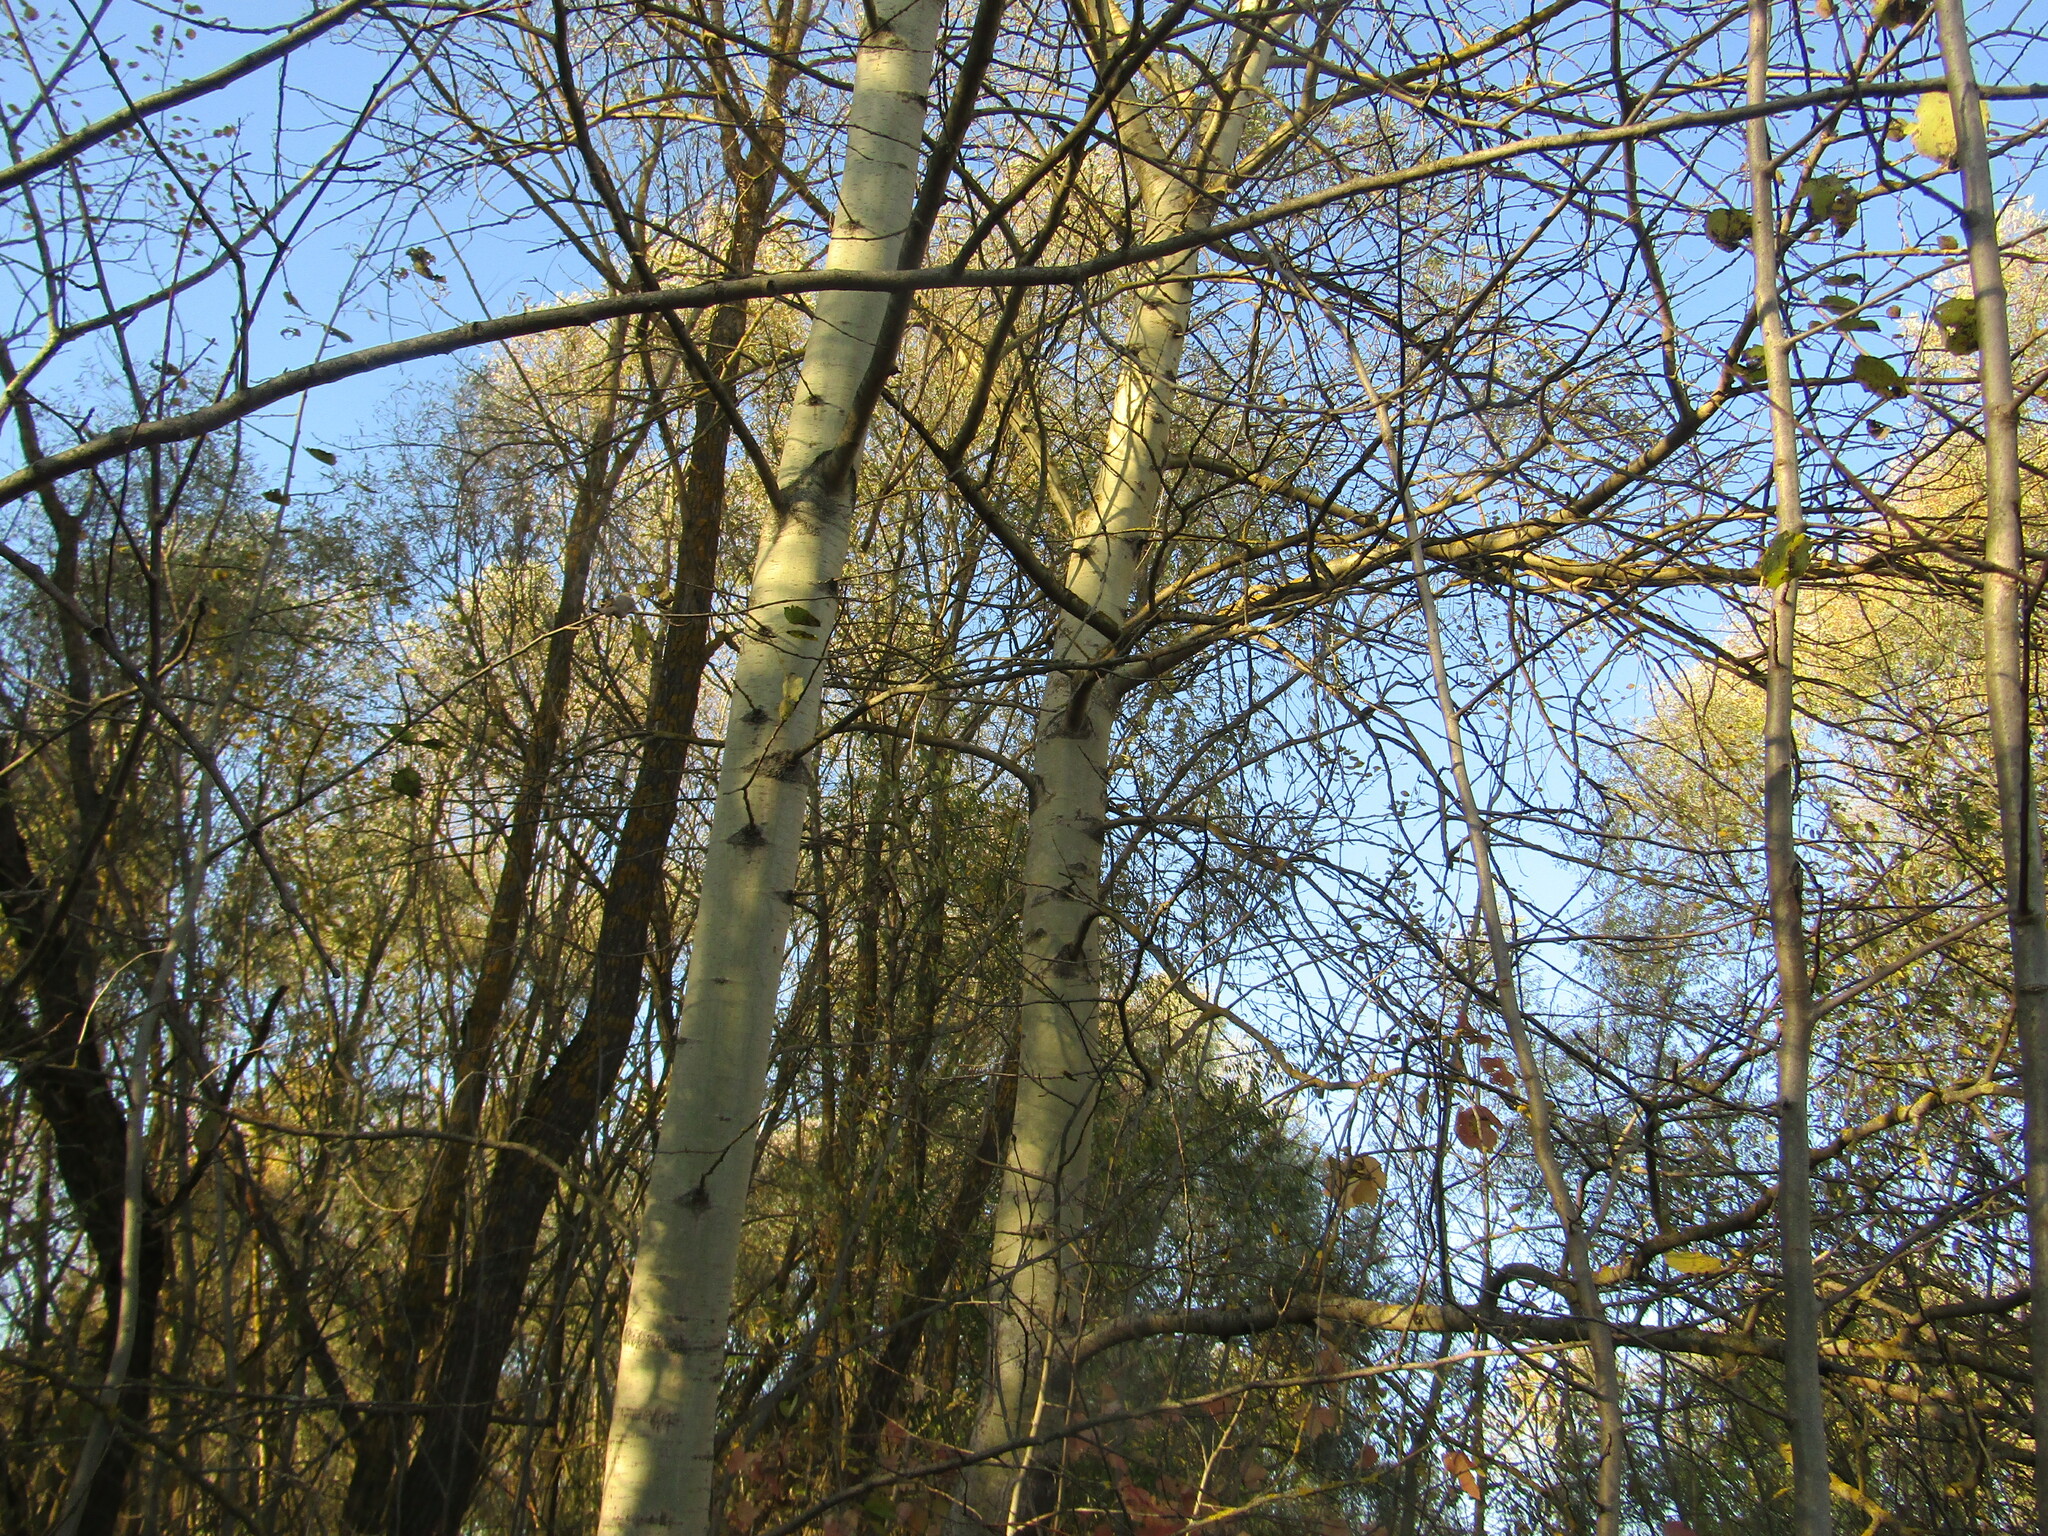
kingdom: Plantae
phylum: Tracheophyta
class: Magnoliopsida
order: Malpighiales
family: Salicaceae
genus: Populus
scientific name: Populus tremula
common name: European aspen
